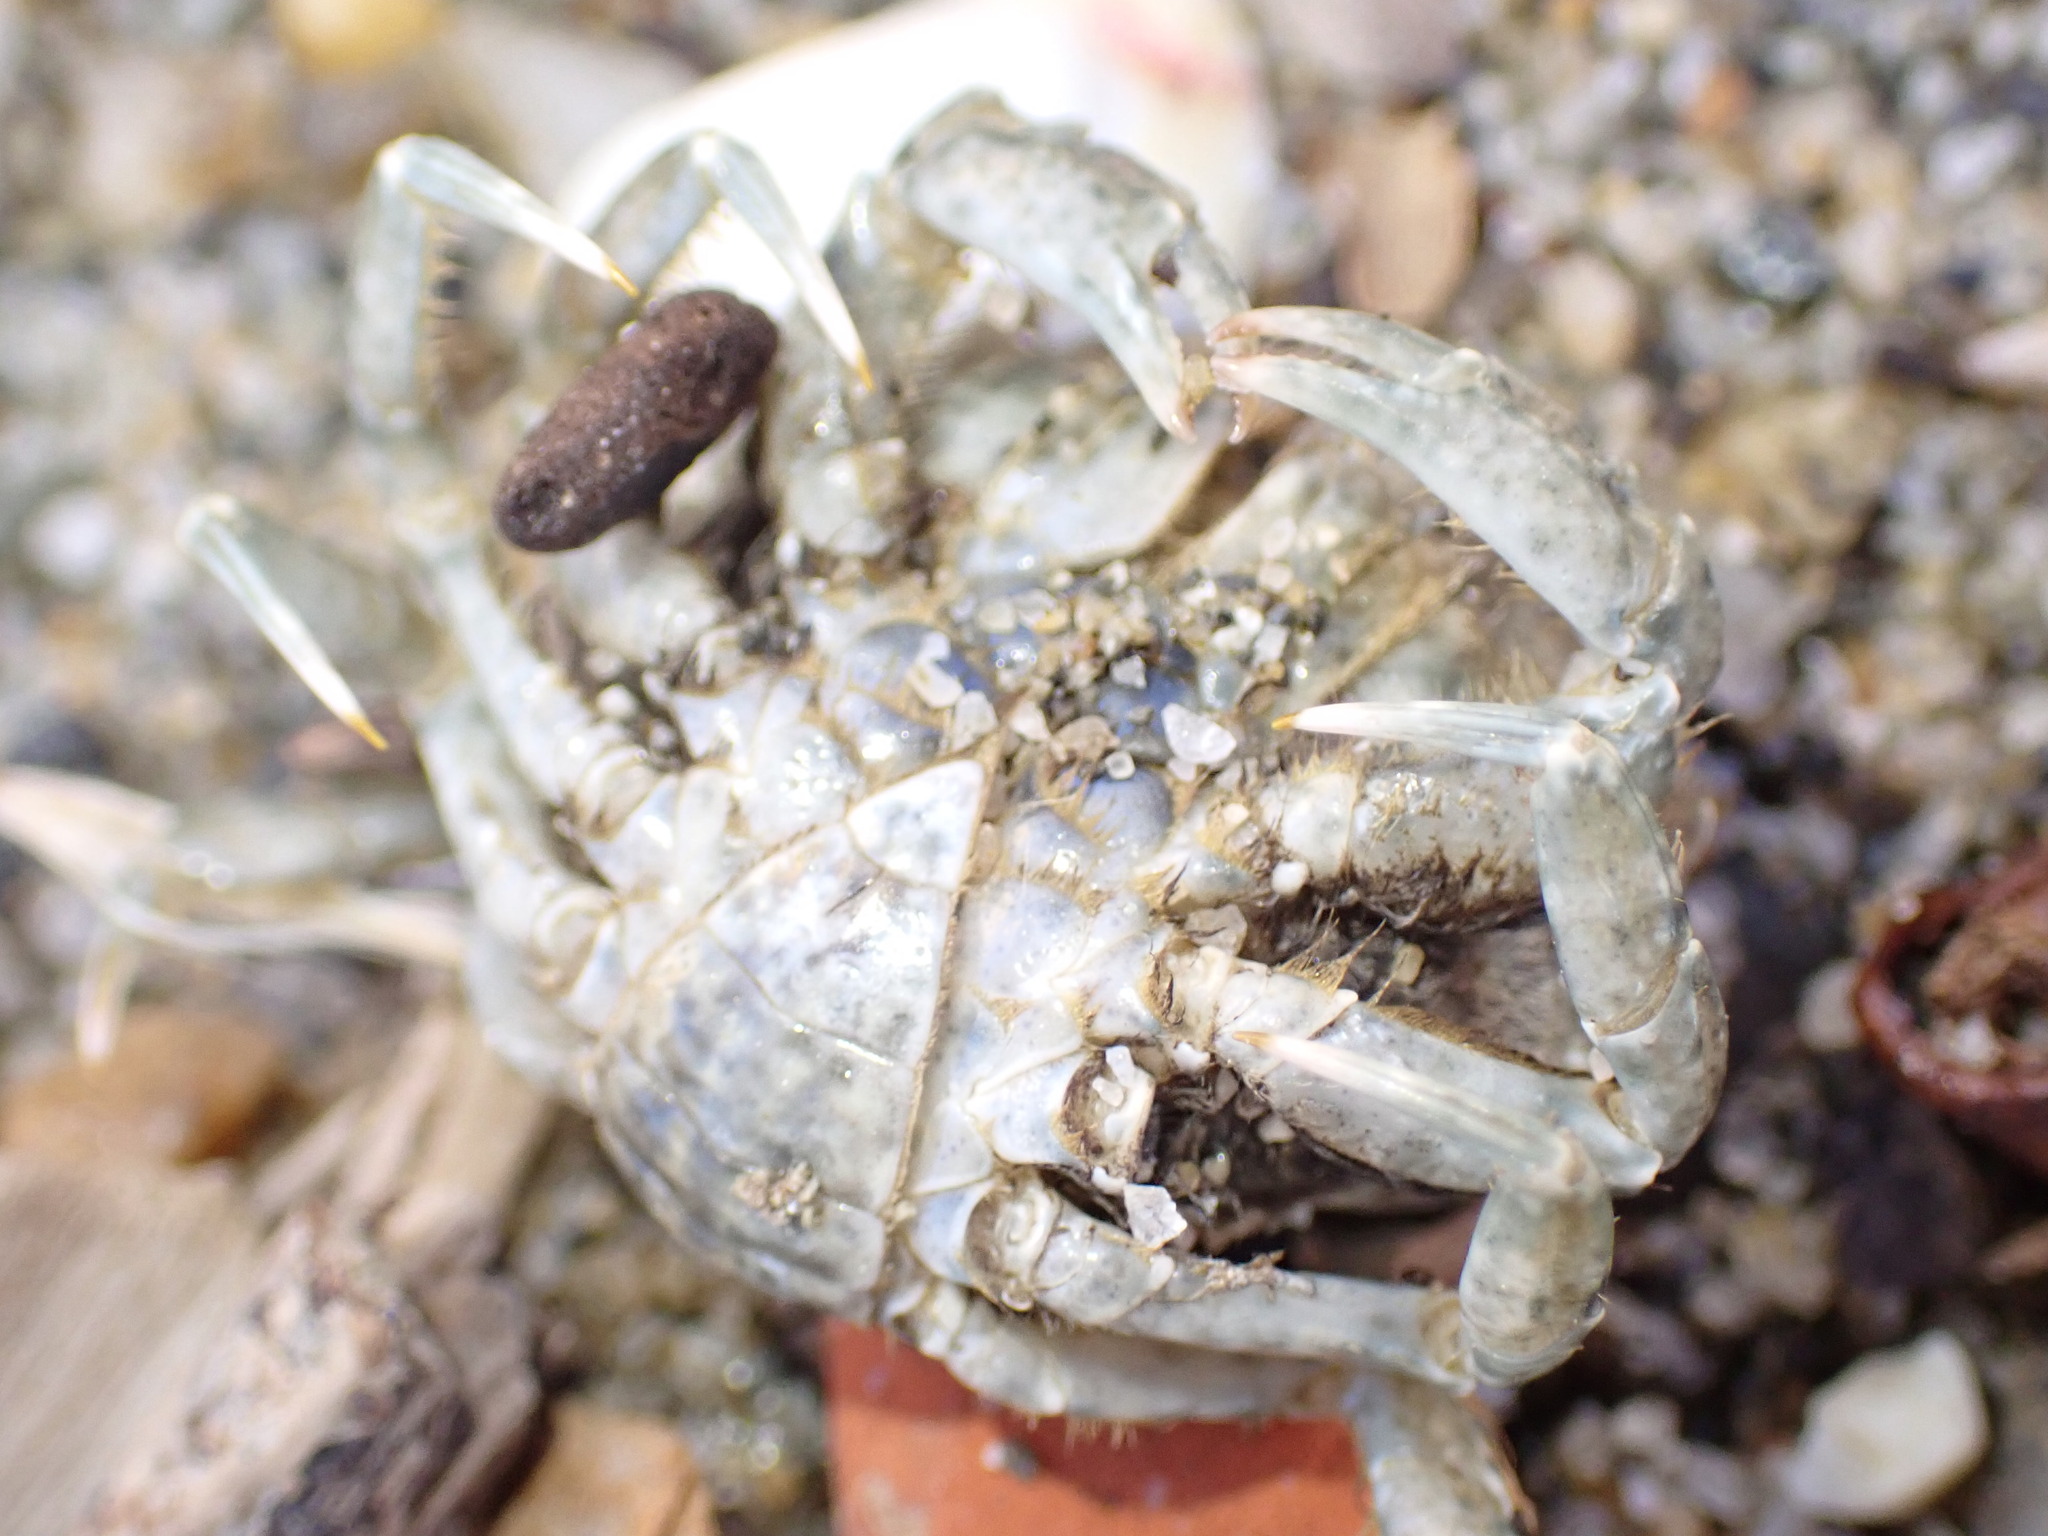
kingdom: Animalia
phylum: Arthropoda
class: Malacostraca
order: Decapoda
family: Pirimelidae
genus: Pirimela
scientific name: Pirimela denticulata
